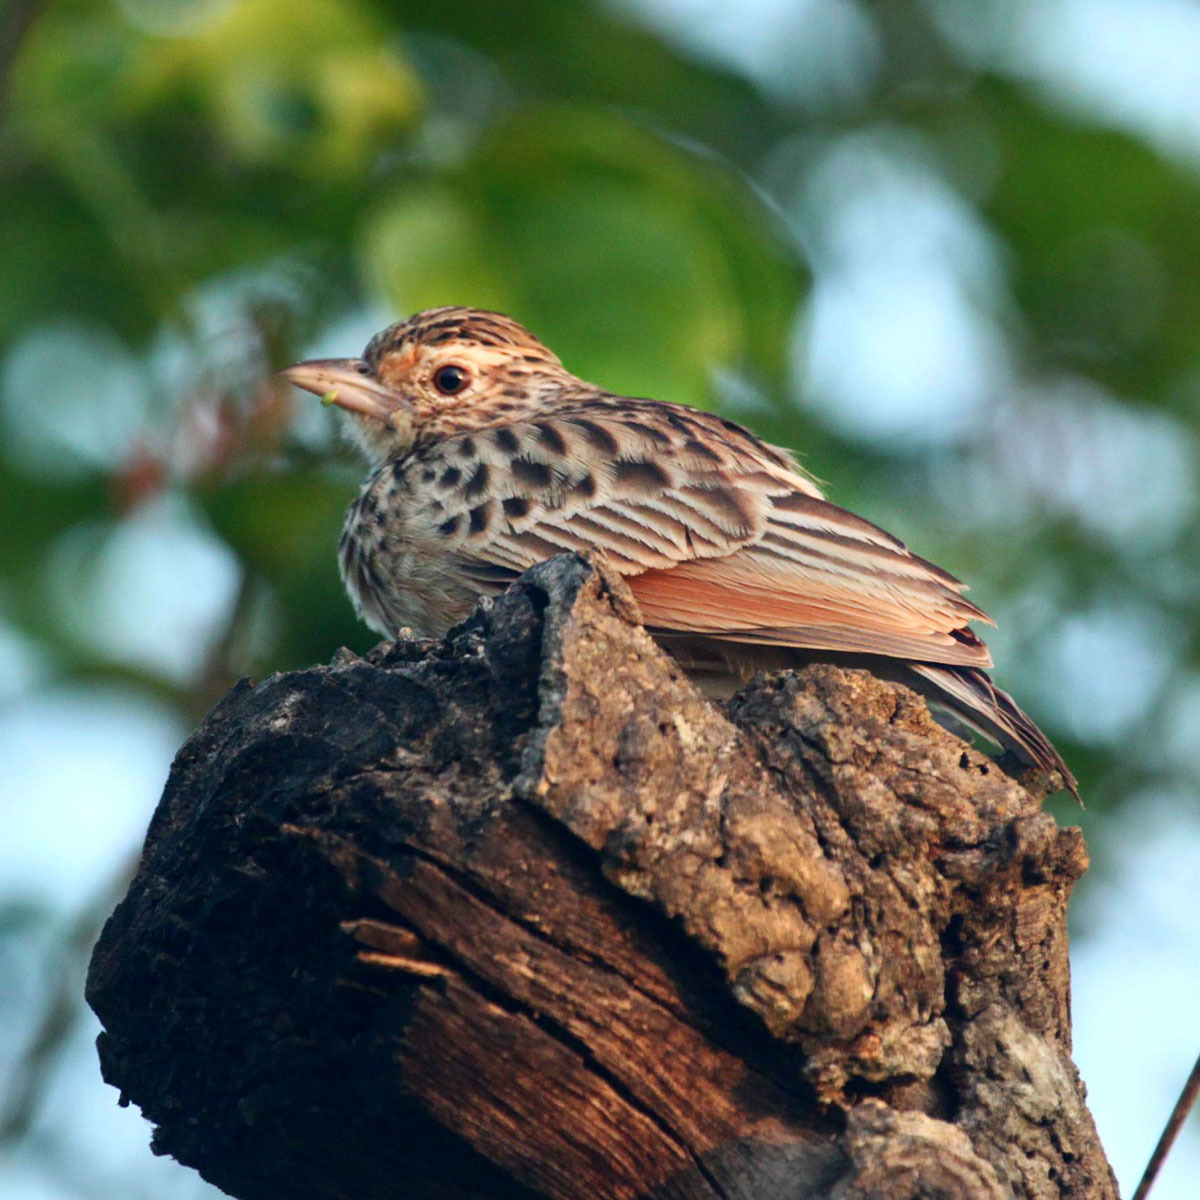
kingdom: Animalia
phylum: Chordata
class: Aves
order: Passeriformes
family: Alaudidae
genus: Mirafra
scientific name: Mirafra affinis
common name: Jerdon's bushlark
